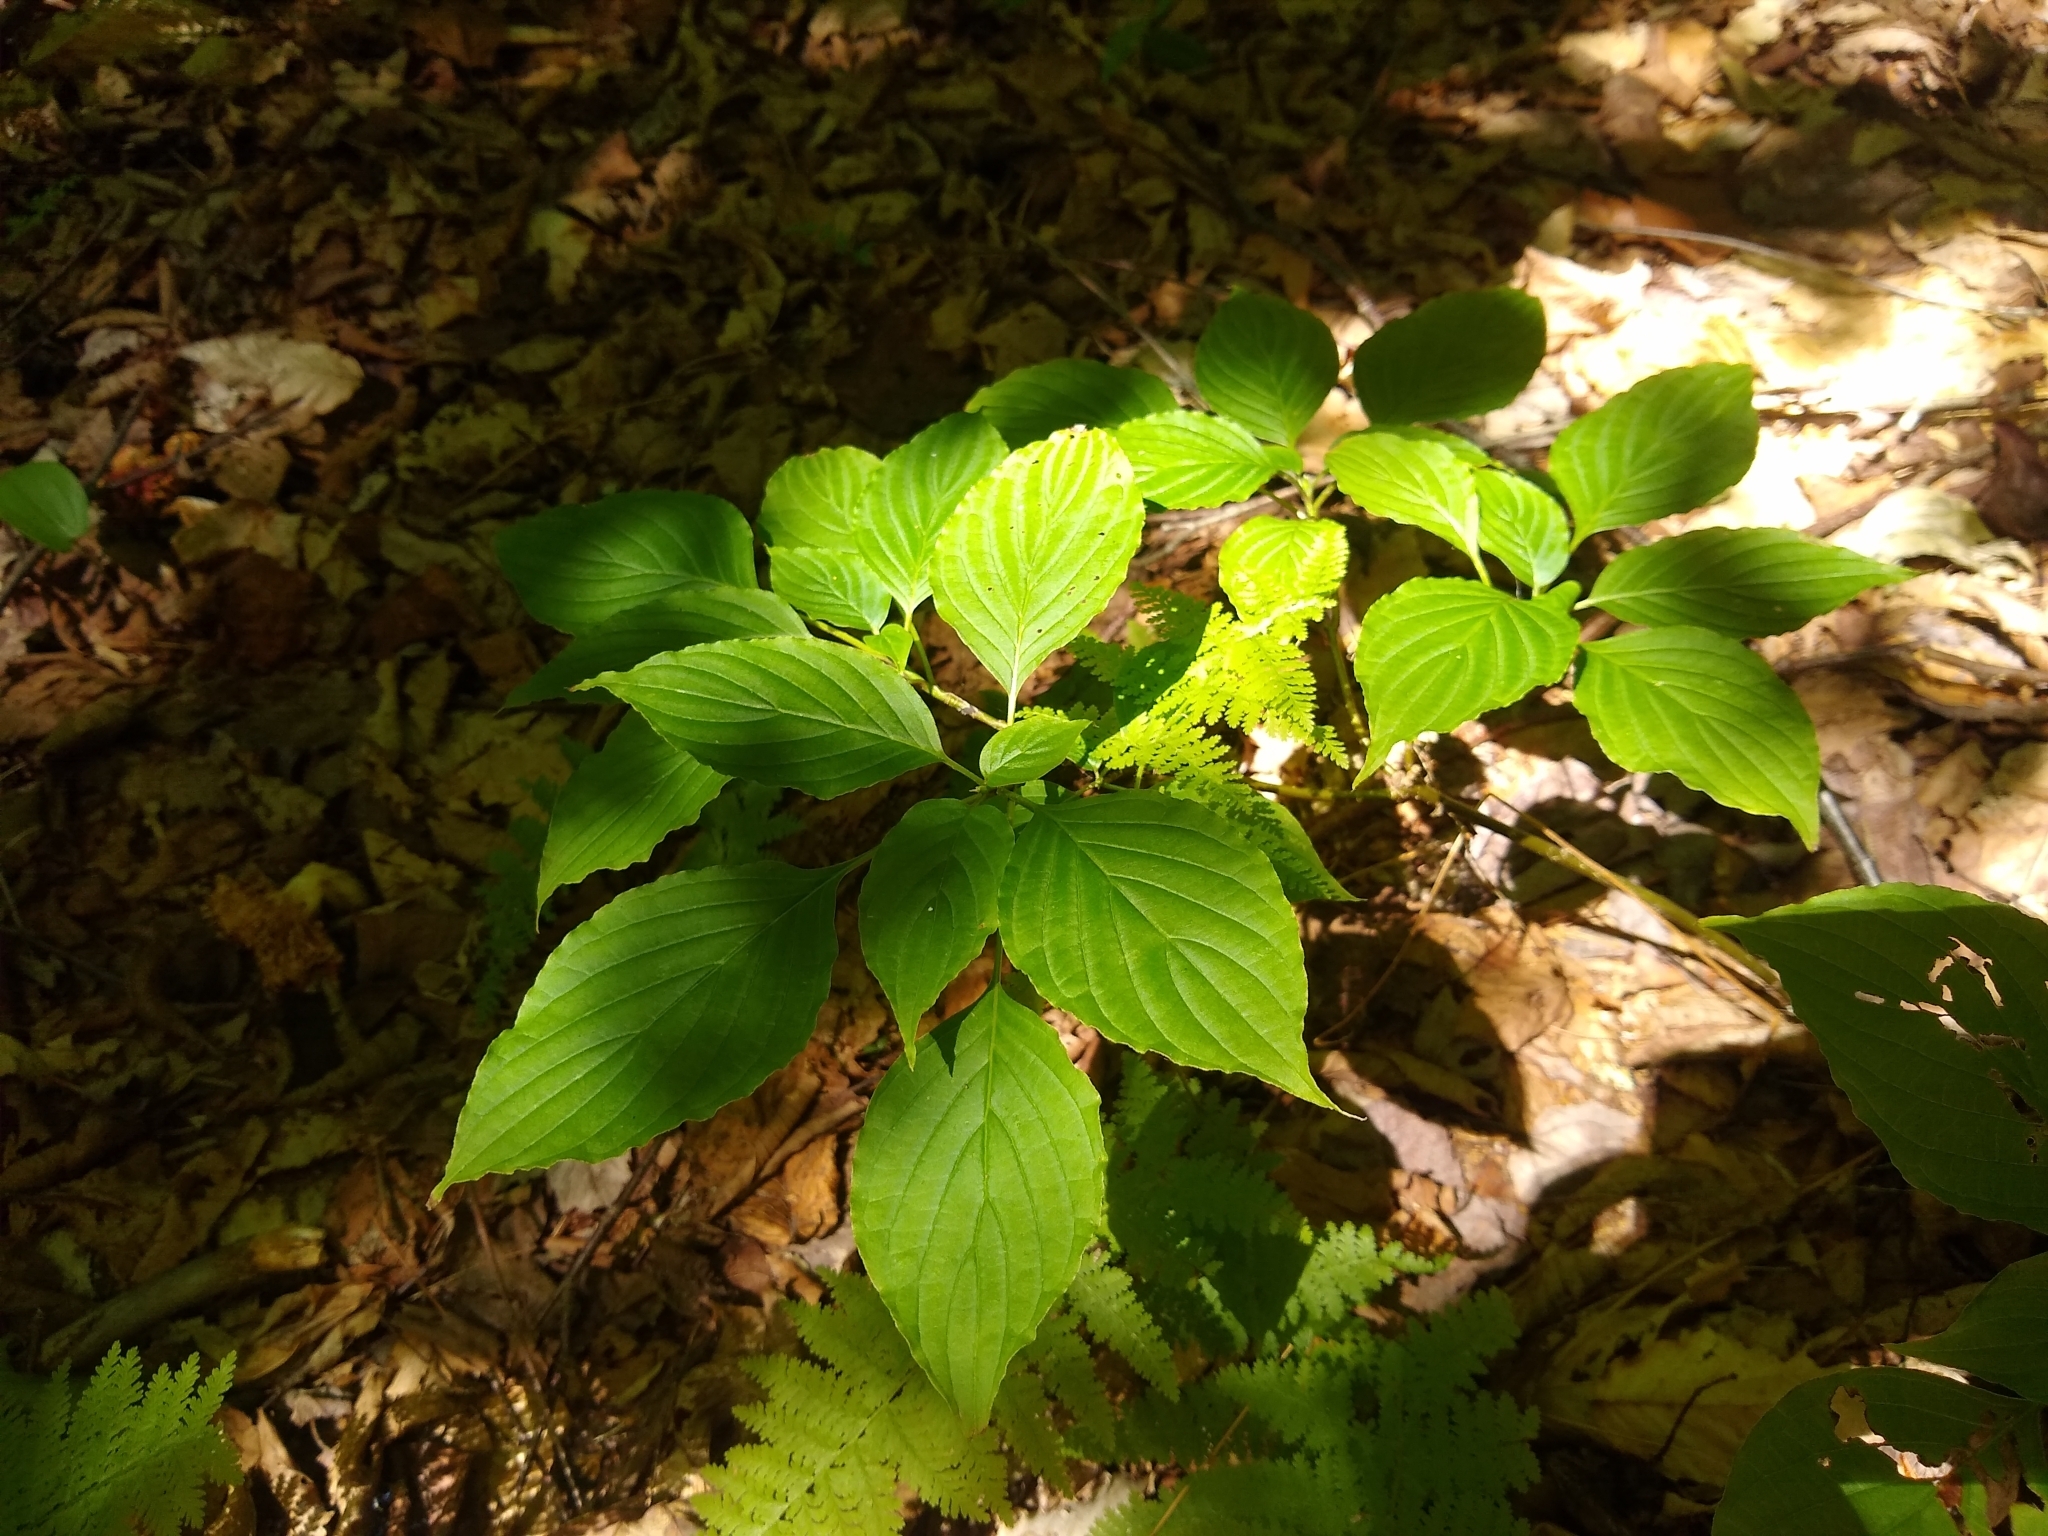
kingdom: Plantae
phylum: Tracheophyta
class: Magnoliopsida
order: Cornales
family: Cornaceae
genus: Cornus
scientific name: Cornus alternifolia
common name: Pagoda dogwood
